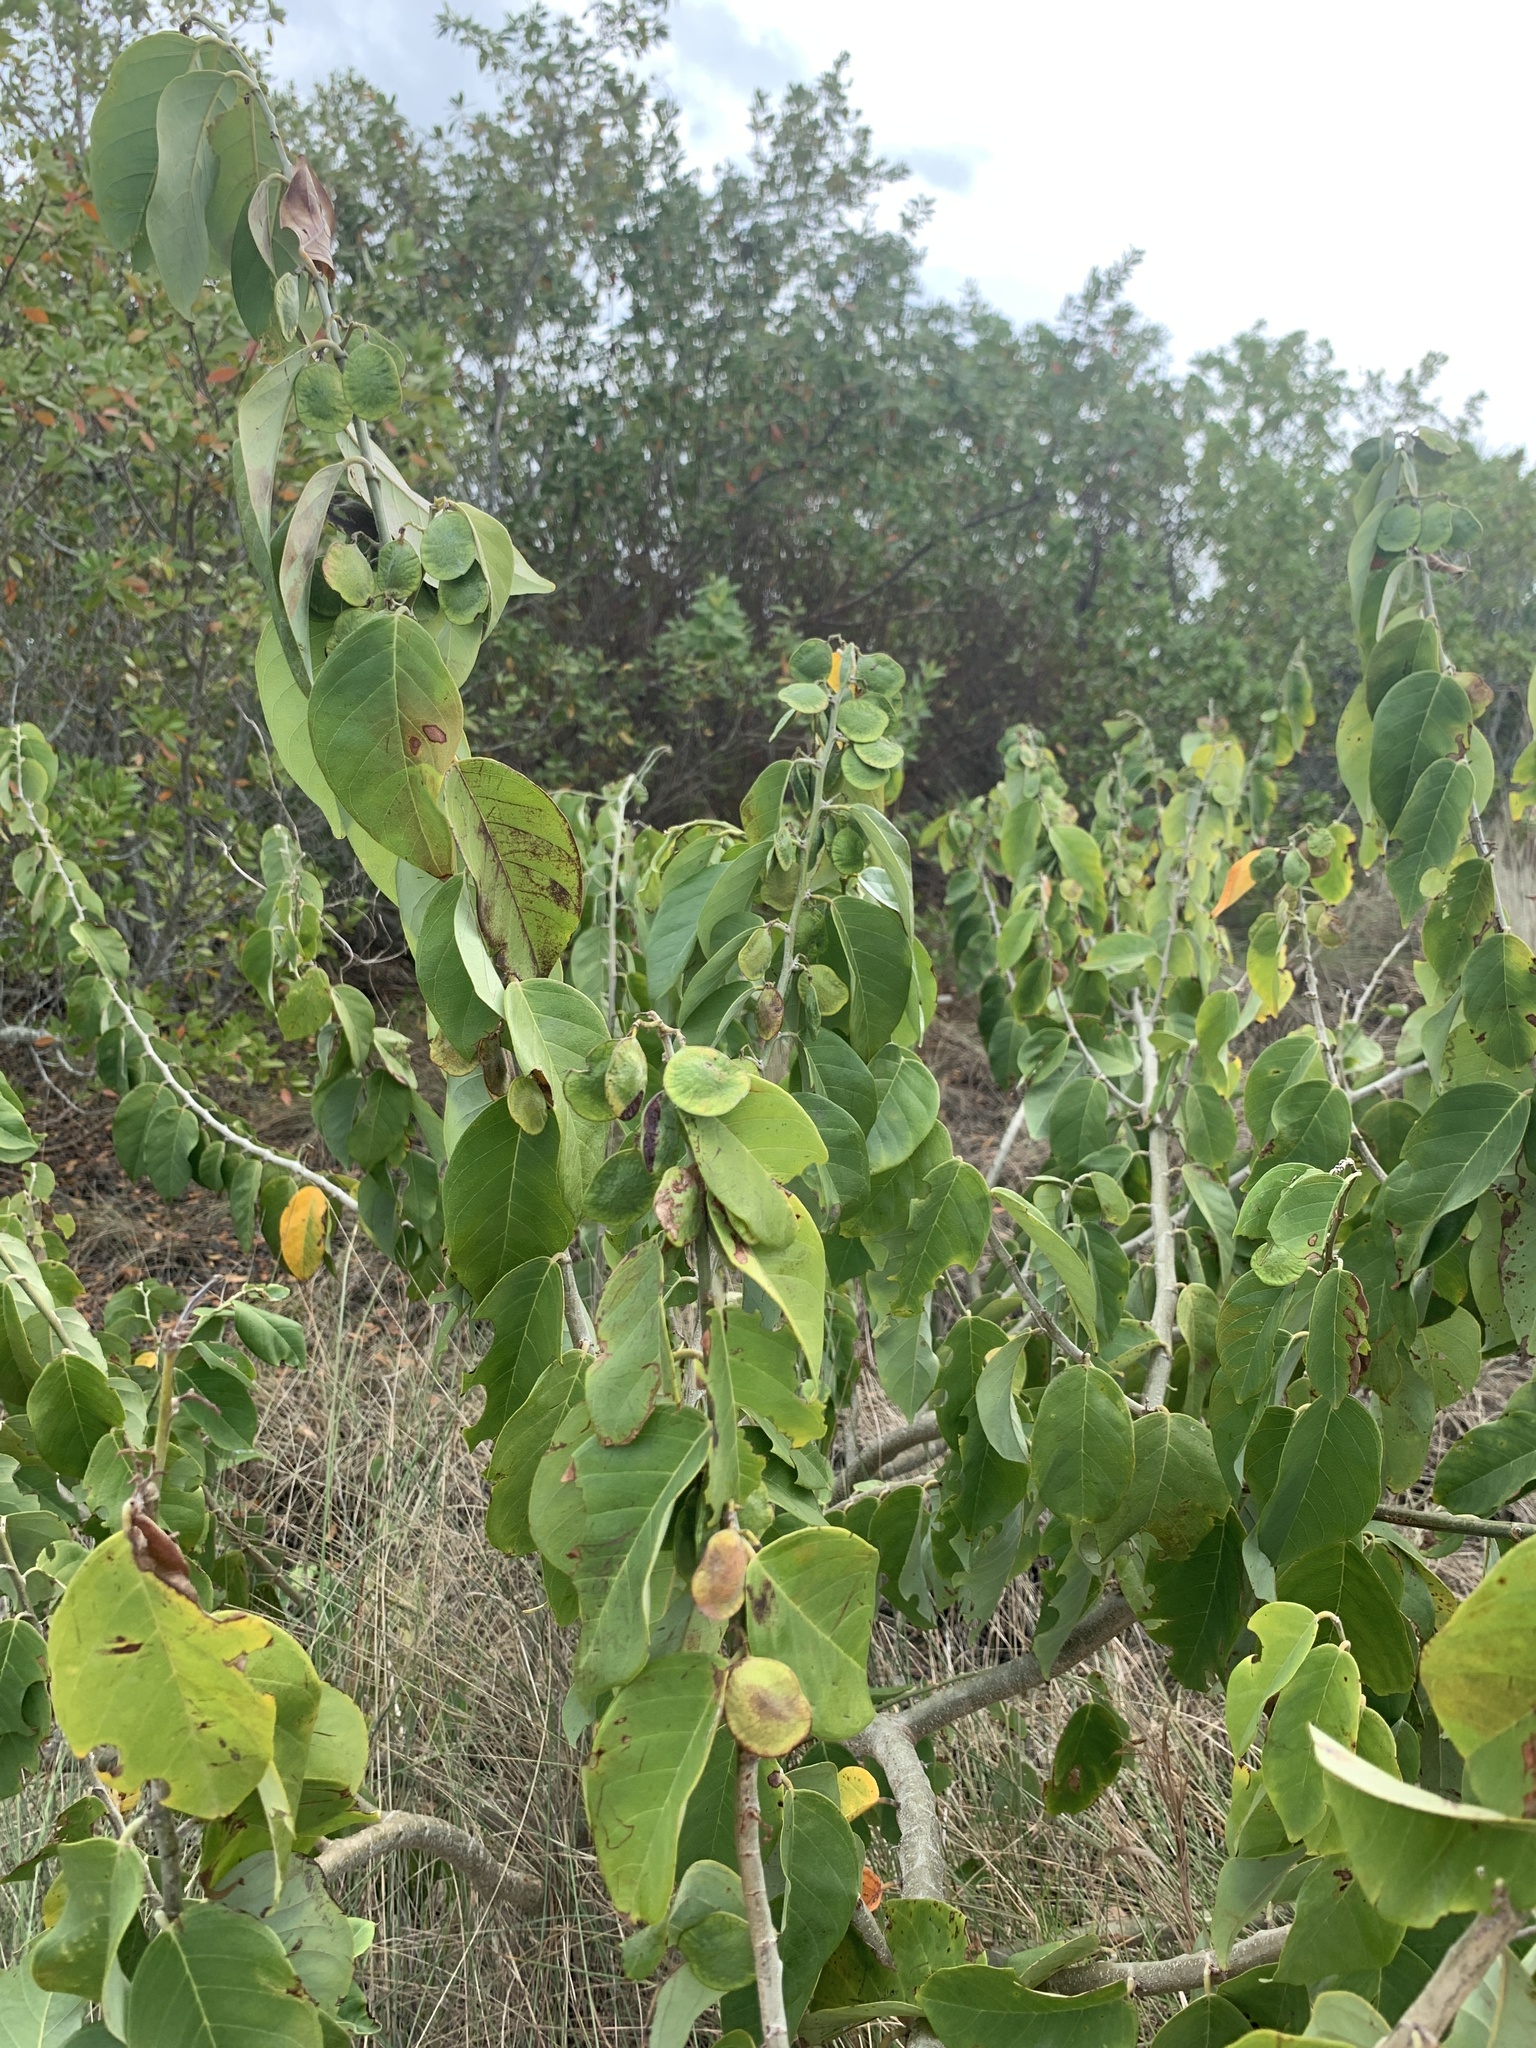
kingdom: Plantae
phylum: Tracheophyta
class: Magnoliopsida
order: Fabales
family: Fabaceae
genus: Dalbergia
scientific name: Dalbergia ecastaphyllum
